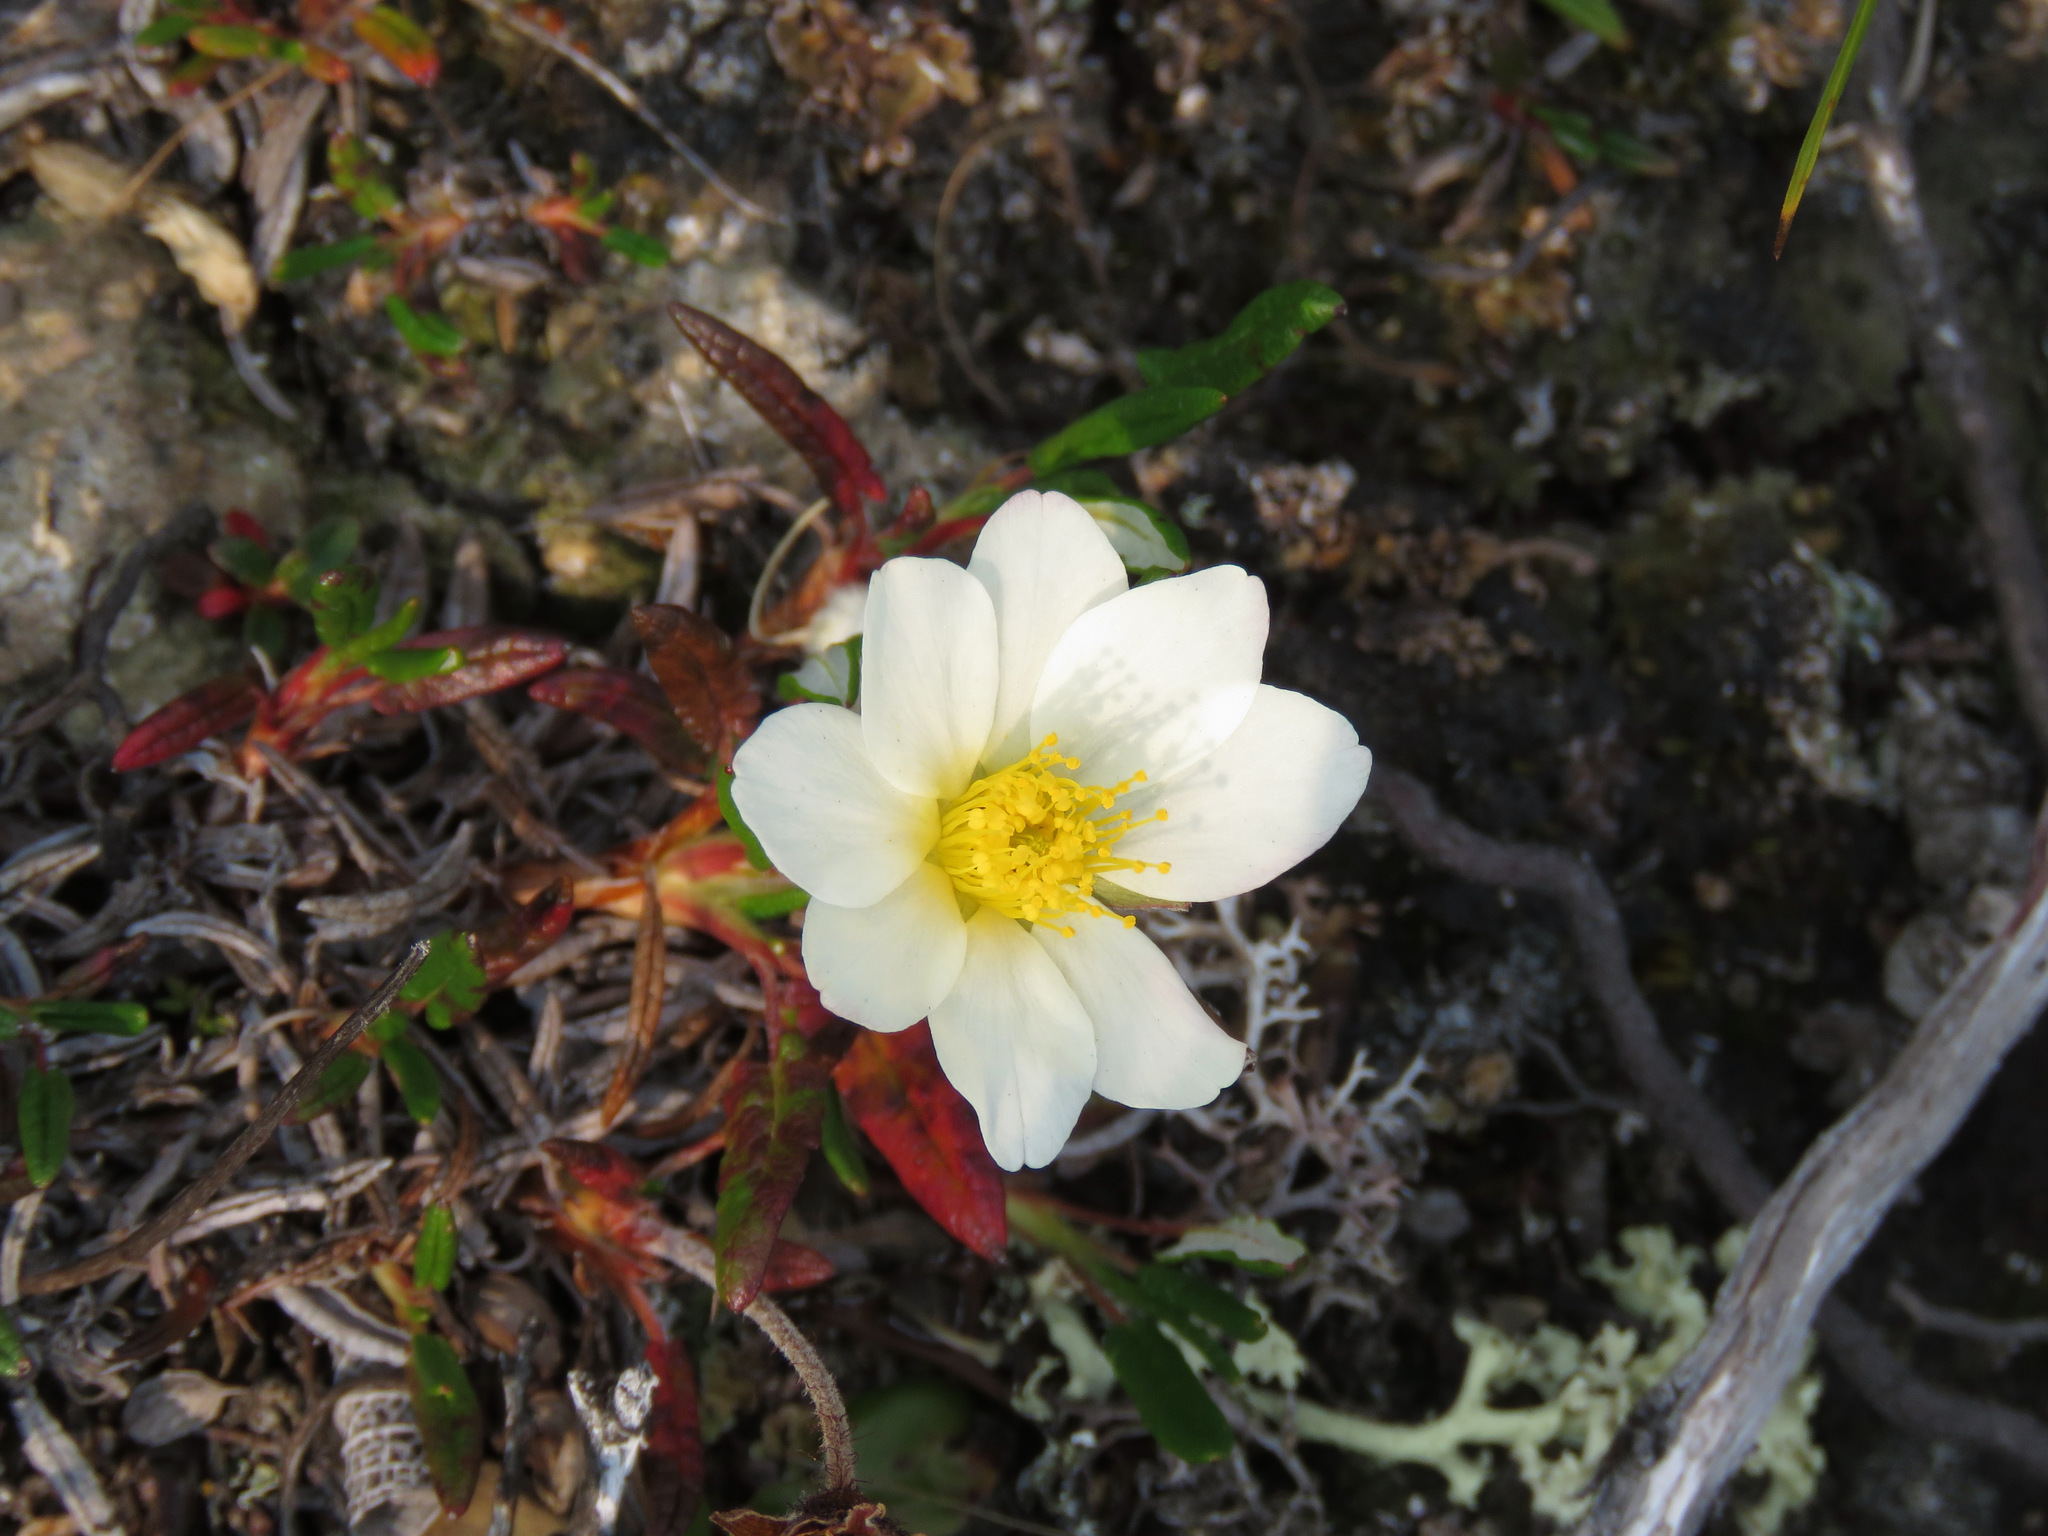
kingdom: Plantae
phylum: Tracheophyta
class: Magnoliopsida
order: Rosales
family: Rosaceae
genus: Dryas
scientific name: Dryas integrifolia
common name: Entire-leaved mountain avens
